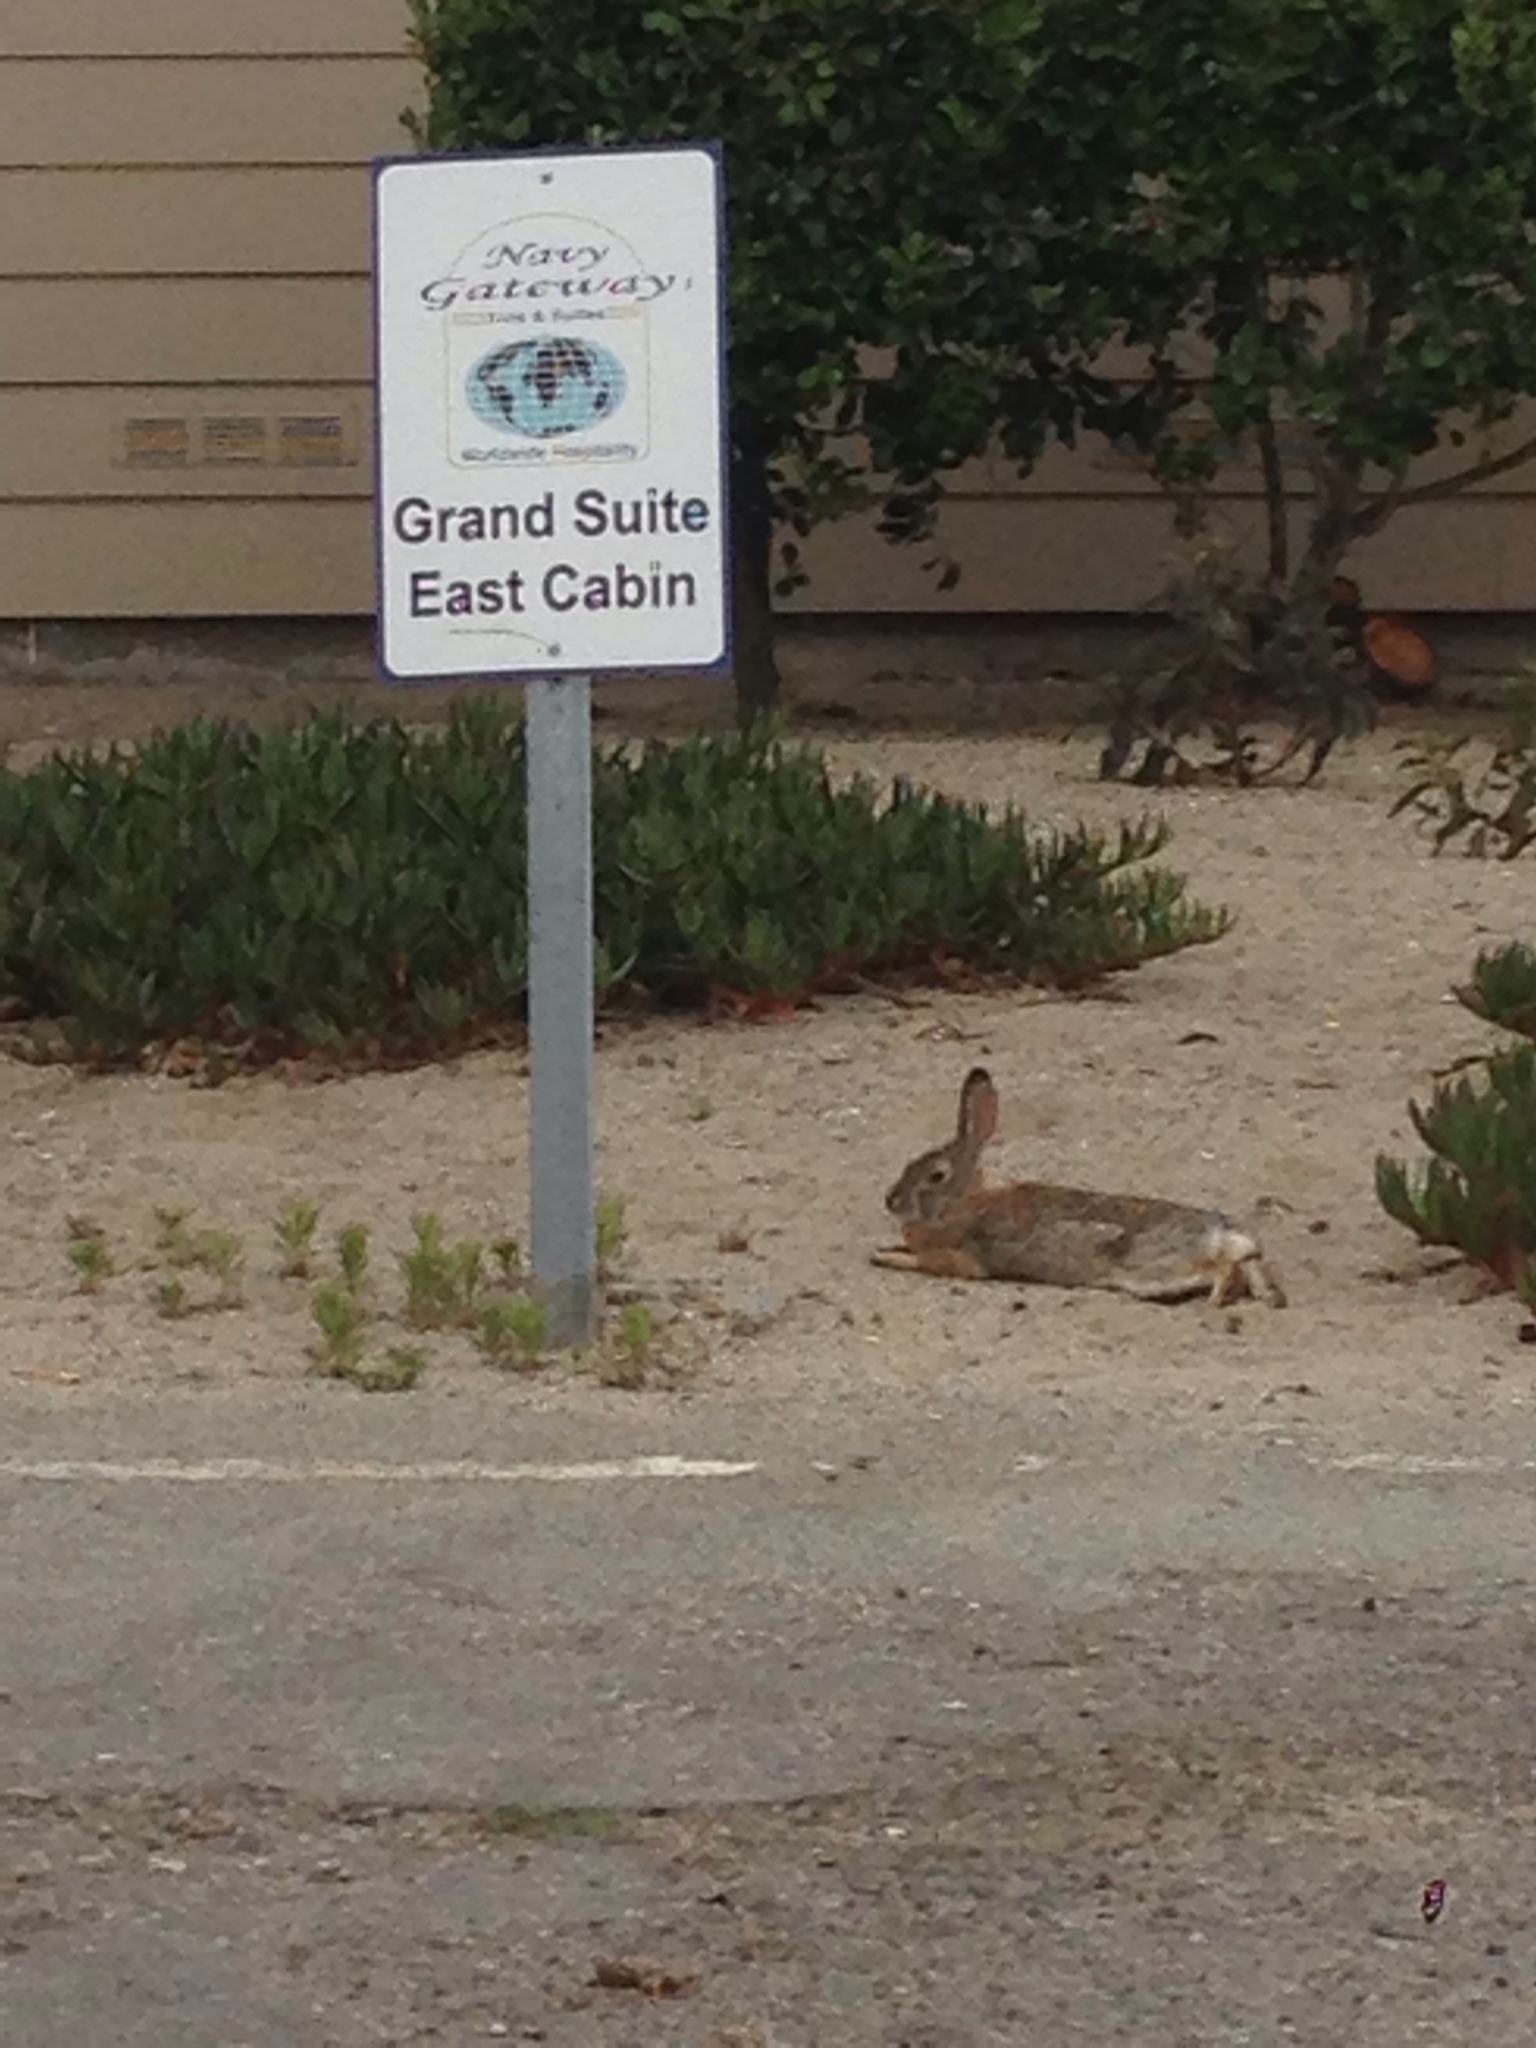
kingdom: Animalia
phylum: Chordata
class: Mammalia
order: Lagomorpha
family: Leporidae
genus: Sylvilagus
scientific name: Sylvilagus audubonii
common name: Desert cottontail
